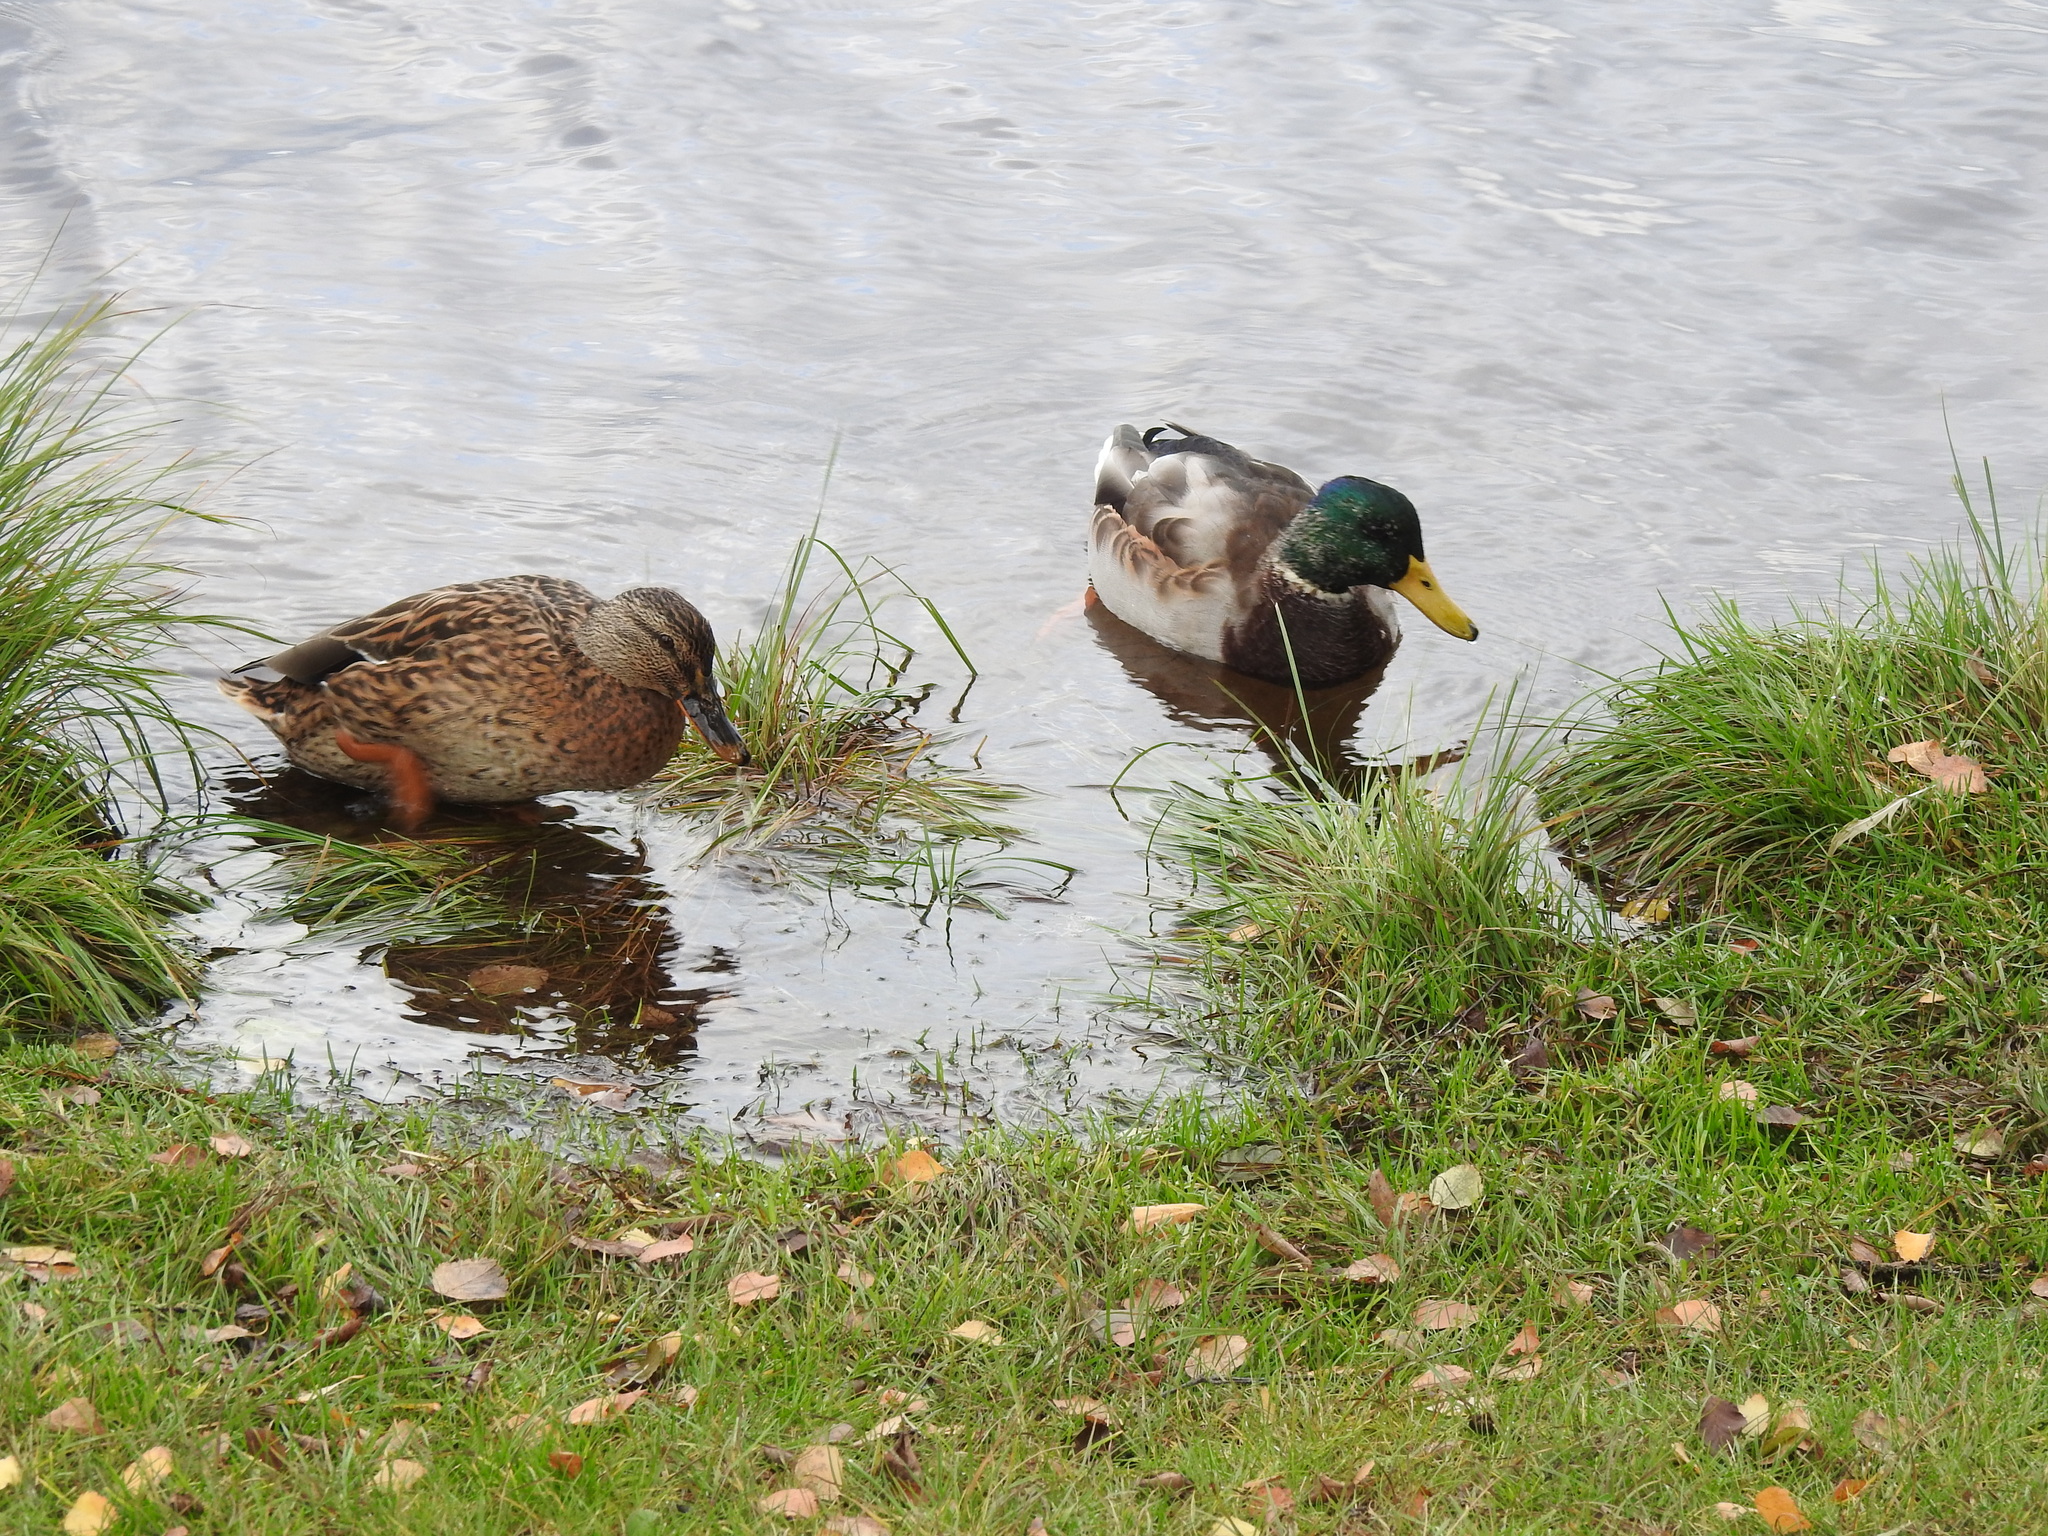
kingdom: Animalia
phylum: Chordata
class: Aves
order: Anseriformes
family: Anatidae
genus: Anas
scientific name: Anas platyrhynchos
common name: Mallard
